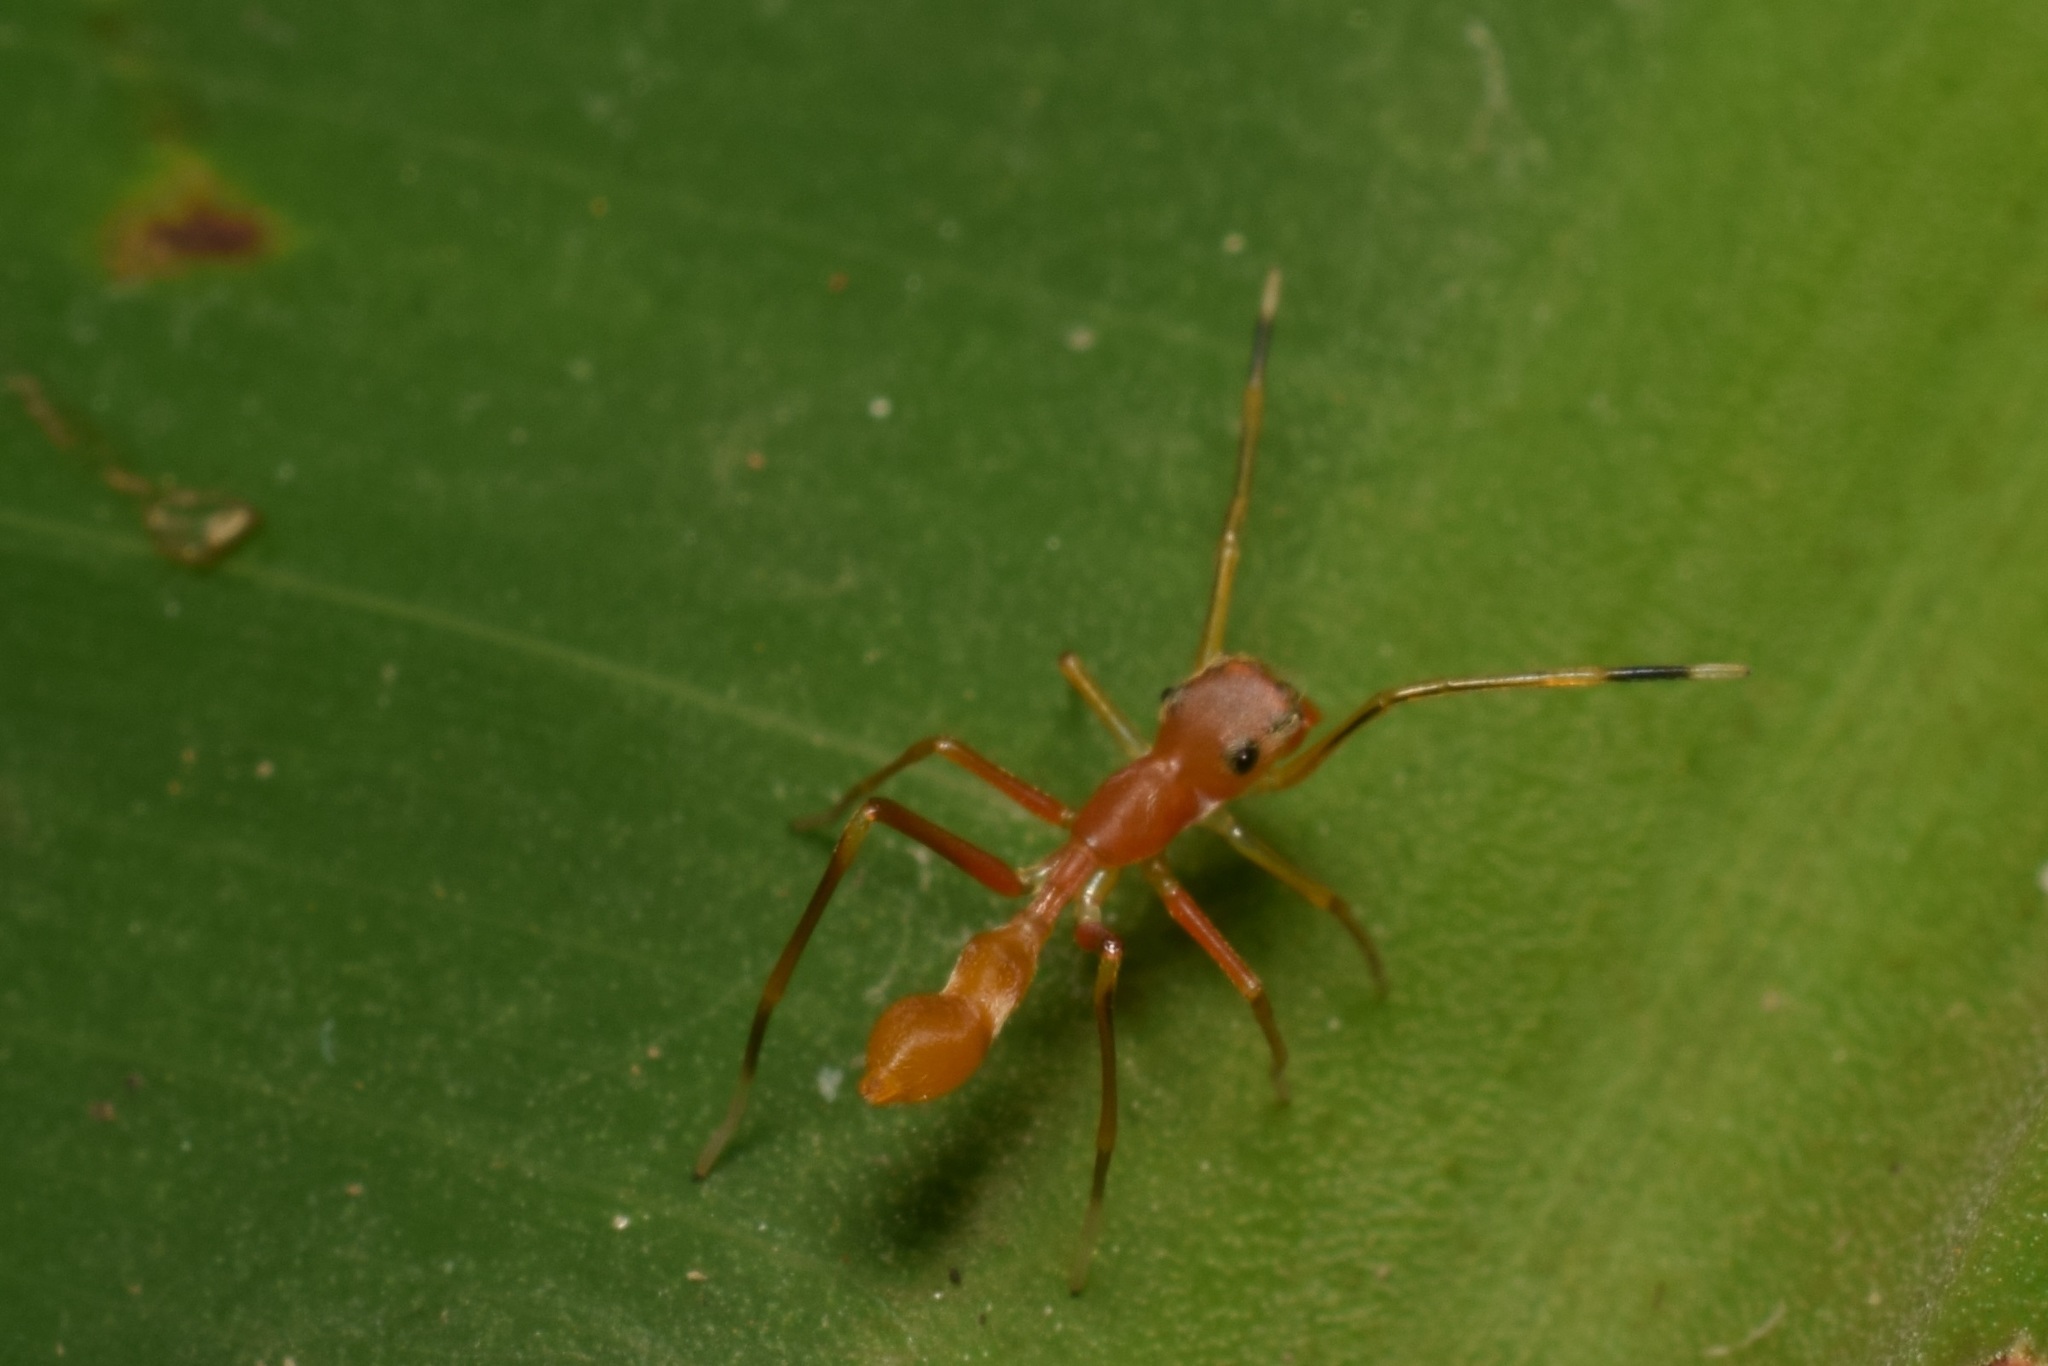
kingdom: Animalia
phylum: Arthropoda
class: Arachnida
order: Araneae
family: Salticidae
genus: Myrmaplata
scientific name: Myrmaplata plataleoides
